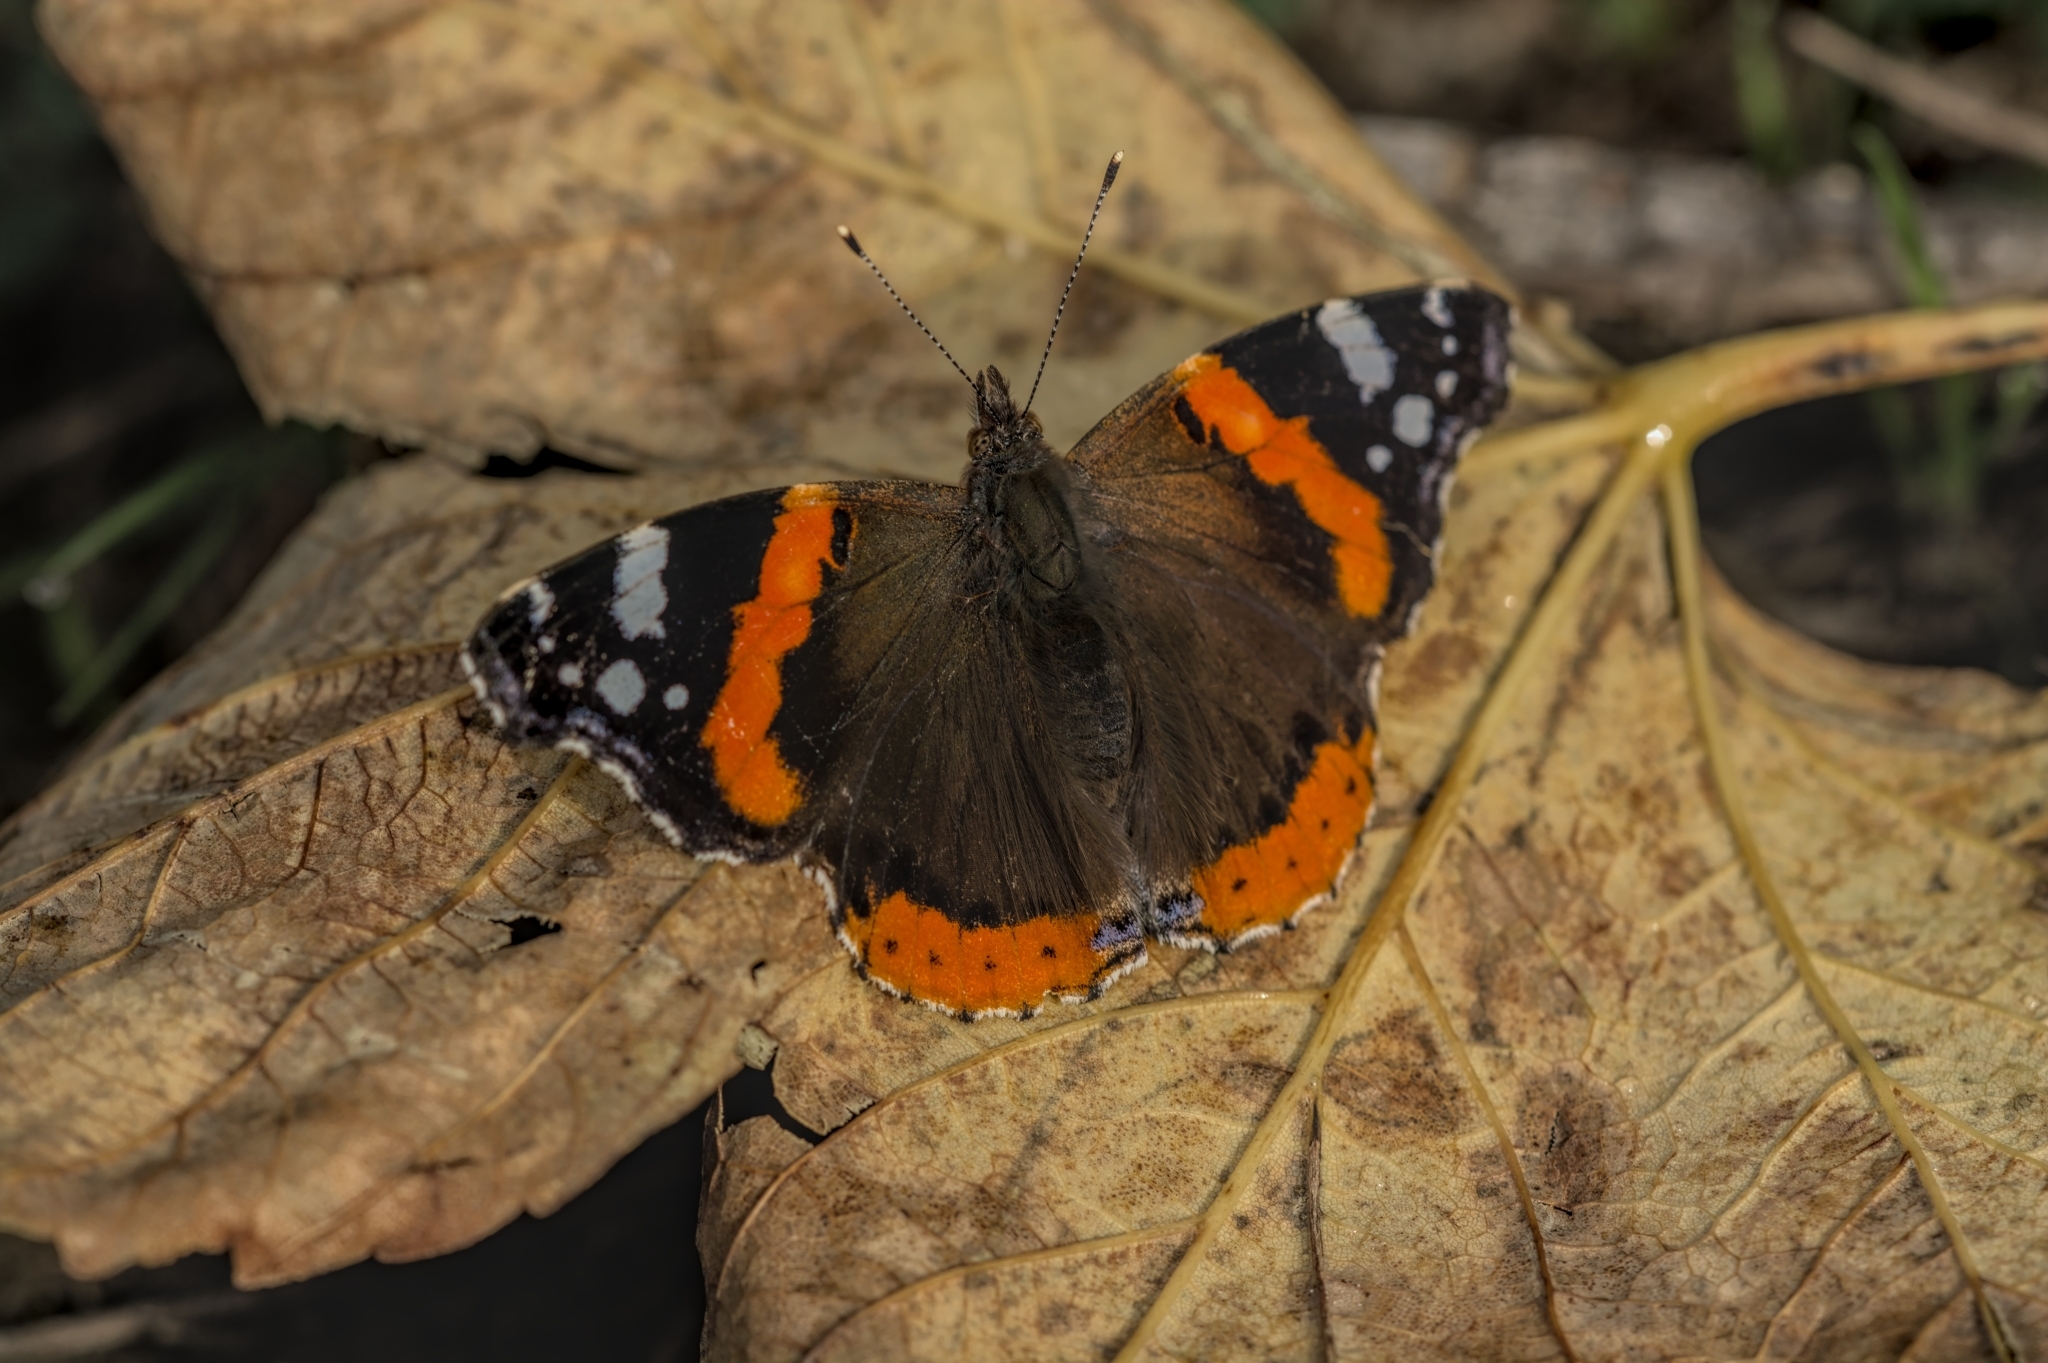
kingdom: Animalia
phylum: Arthropoda
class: Insecta
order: Lepidoptera
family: Nymphalidae
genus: Vanessa
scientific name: Vanessa atalanta
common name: Red admiral
